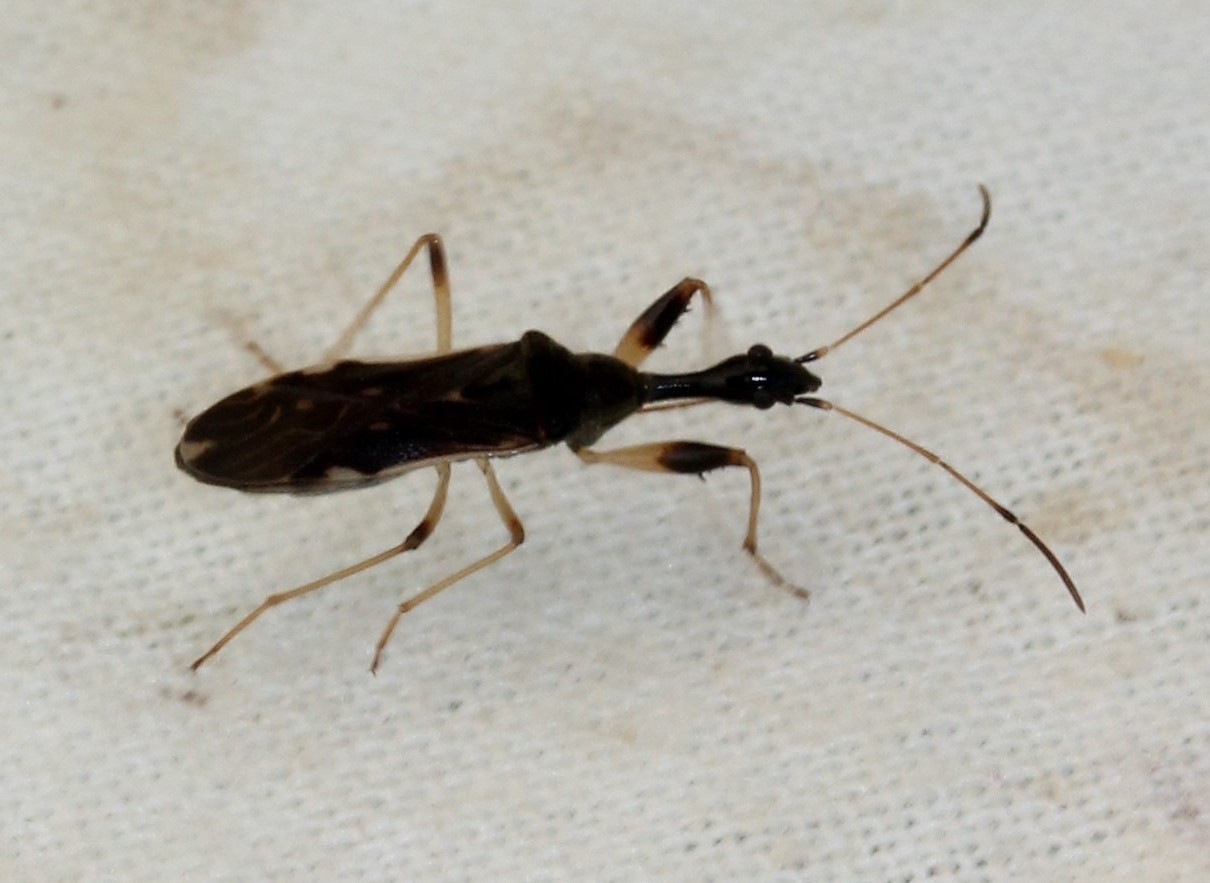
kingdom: Animalia
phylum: Arthropoda
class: Insecta
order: Hemiptera
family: Rhyparochromidae
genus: Myodocha
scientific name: Myodocha serripes
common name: Long-necked seed bug
